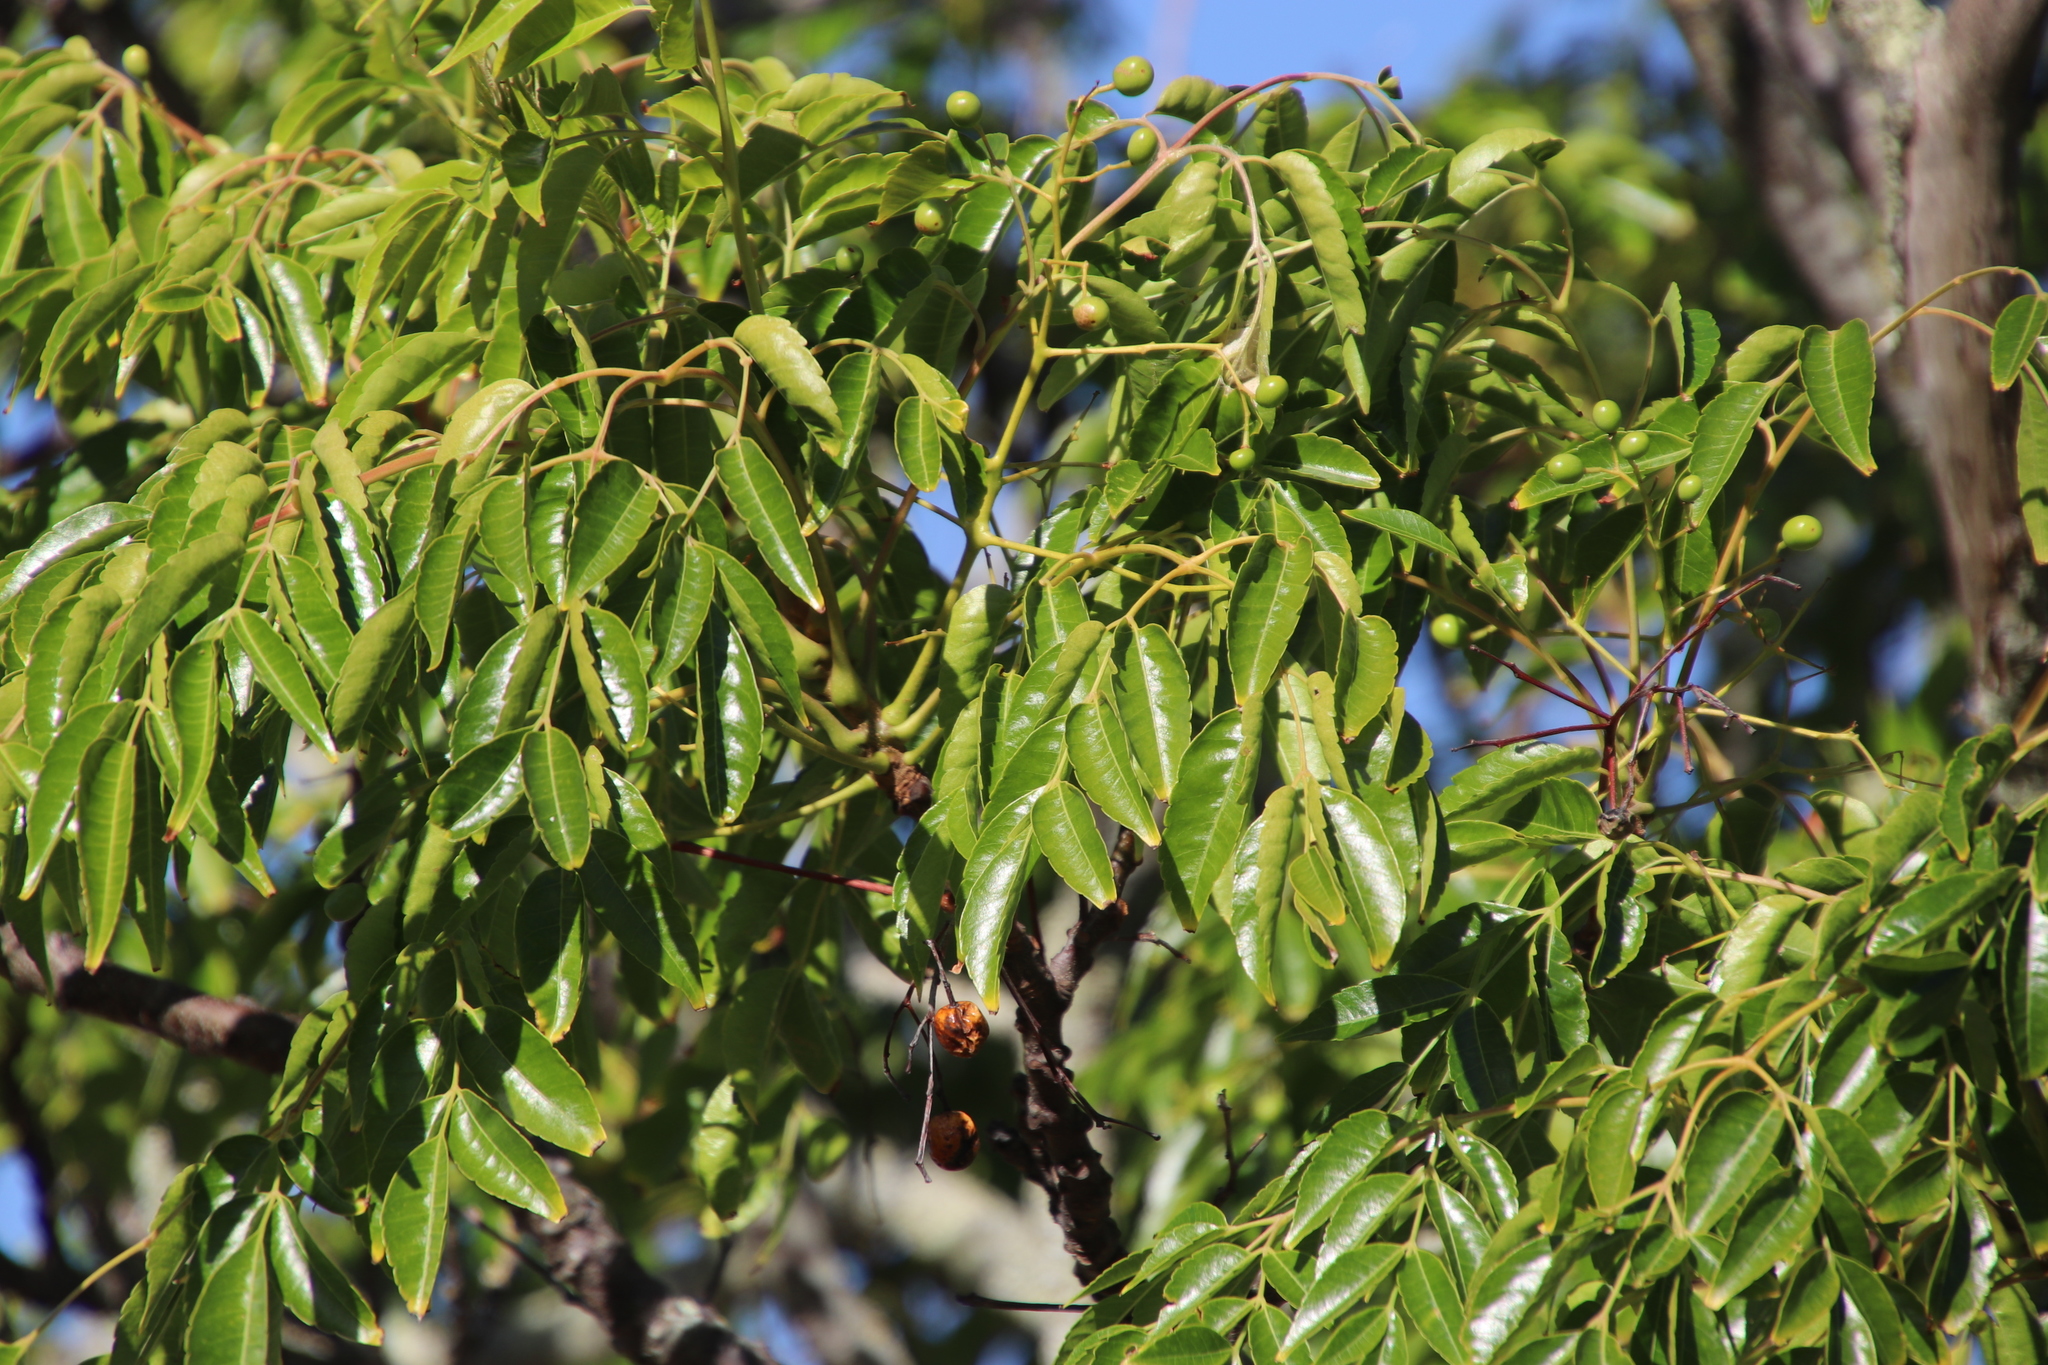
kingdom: Plantae
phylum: Tracheophyta
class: Magnoliopsida
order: Sapindales
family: Meliaceae
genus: Melia
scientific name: Melia azedarach
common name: Chinaberrytree
